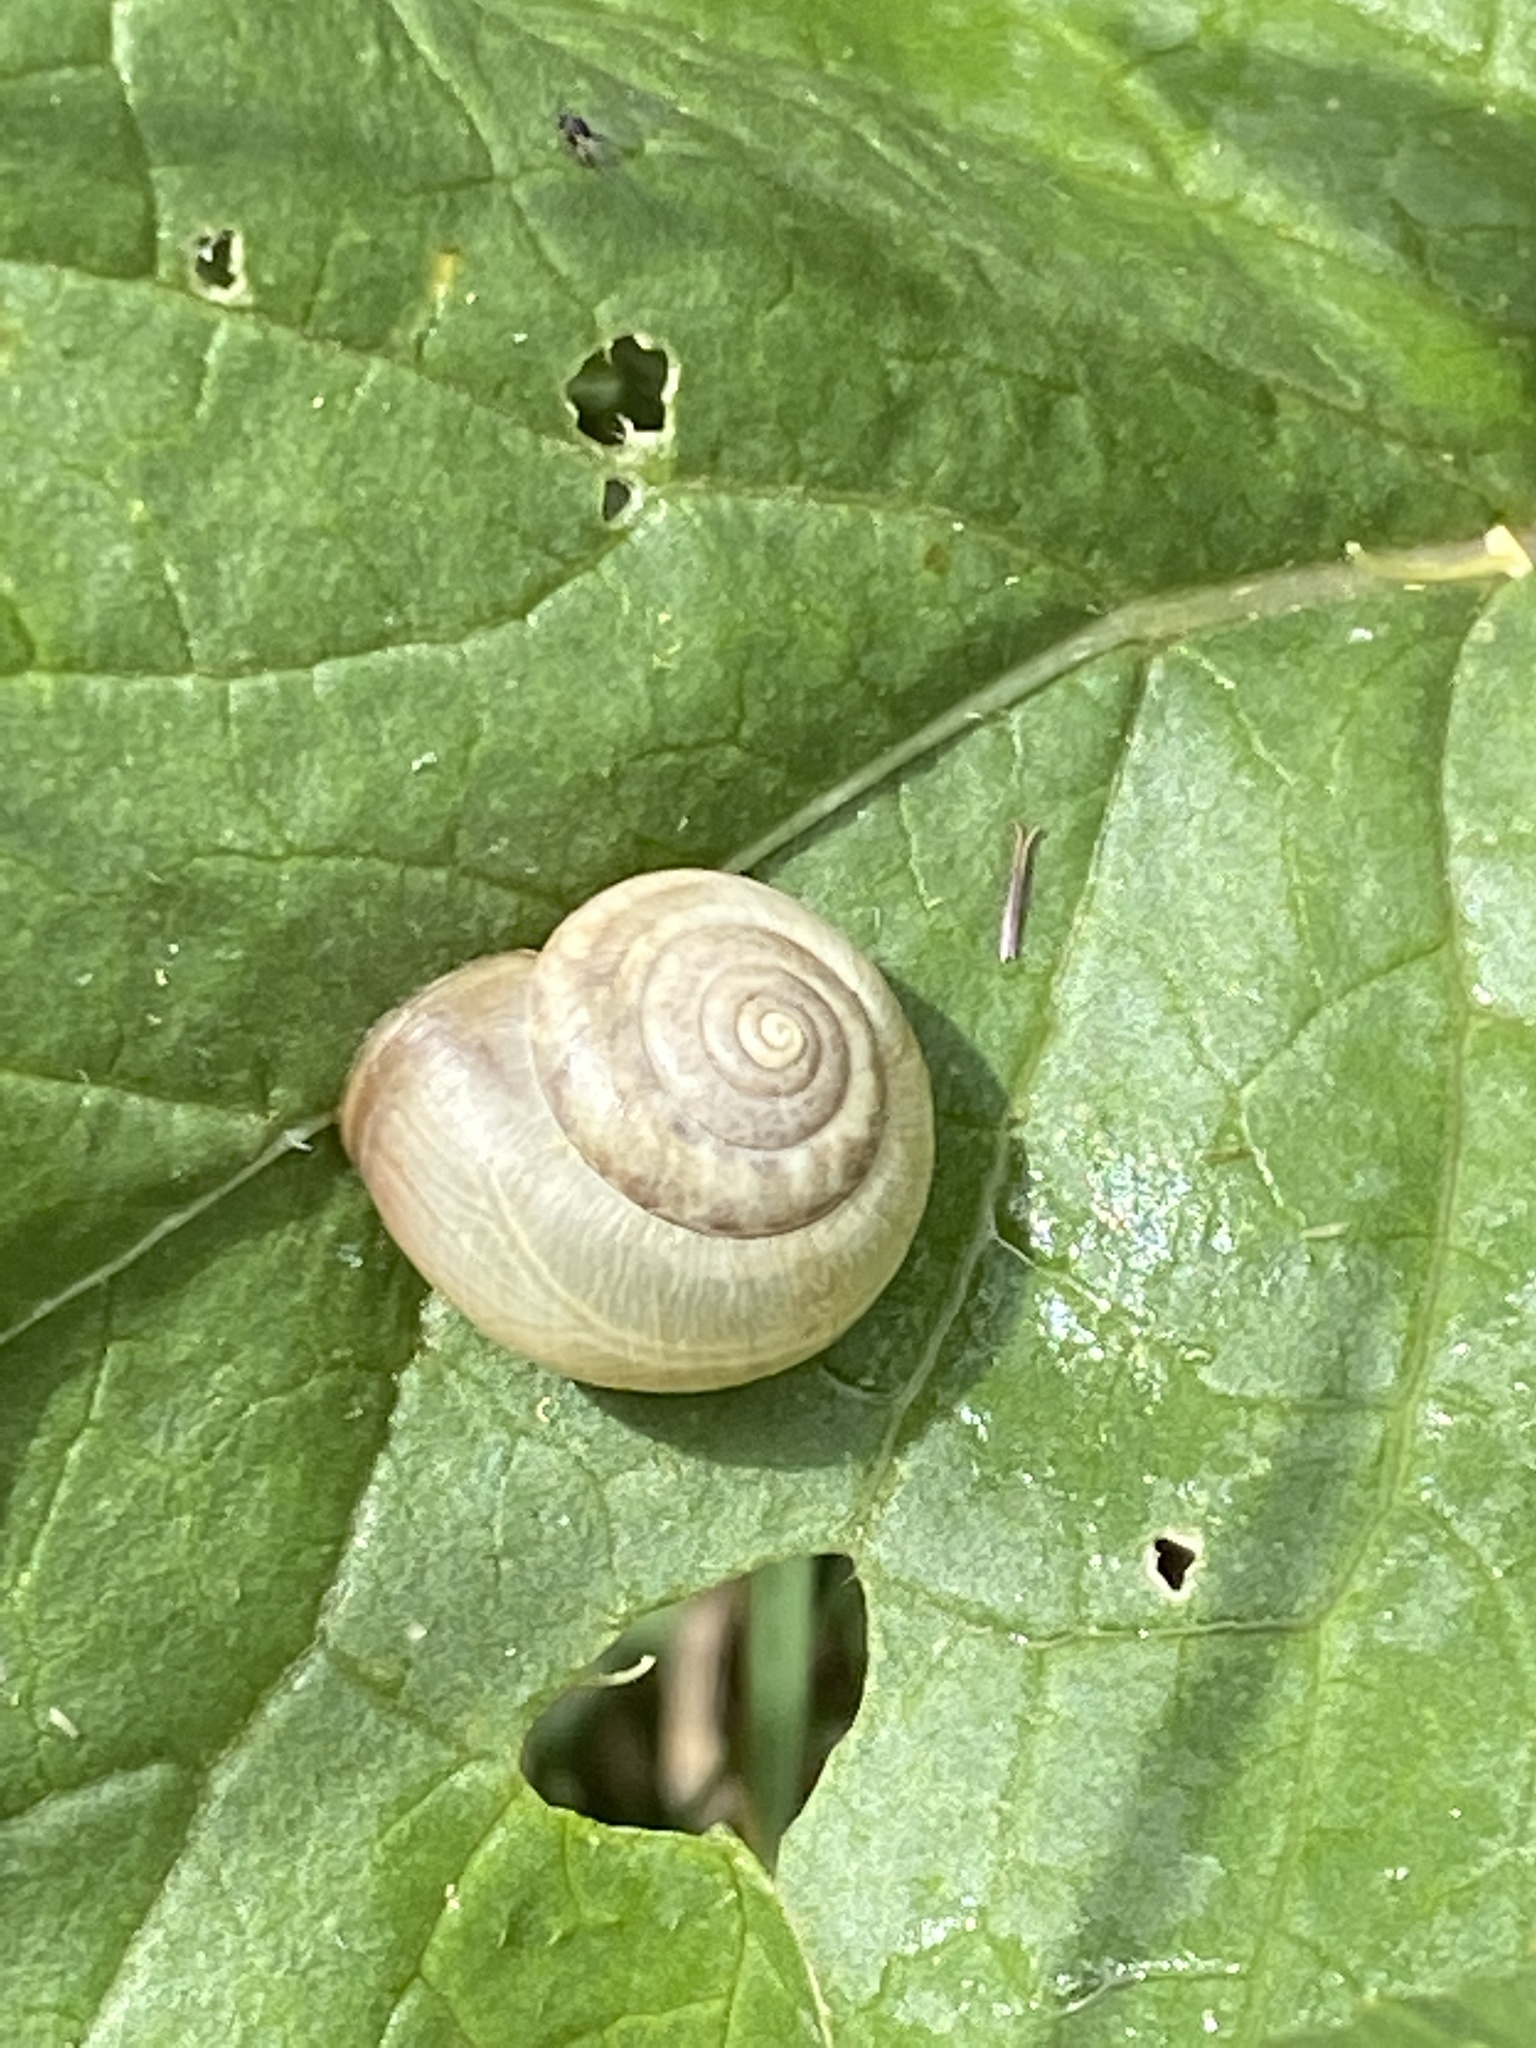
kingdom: Animalia
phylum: Mollusca
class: Gastropoda
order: Stylommatophora
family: Hygromiidae
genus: Monacha
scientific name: Monacha cantiana
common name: Kentish snail
